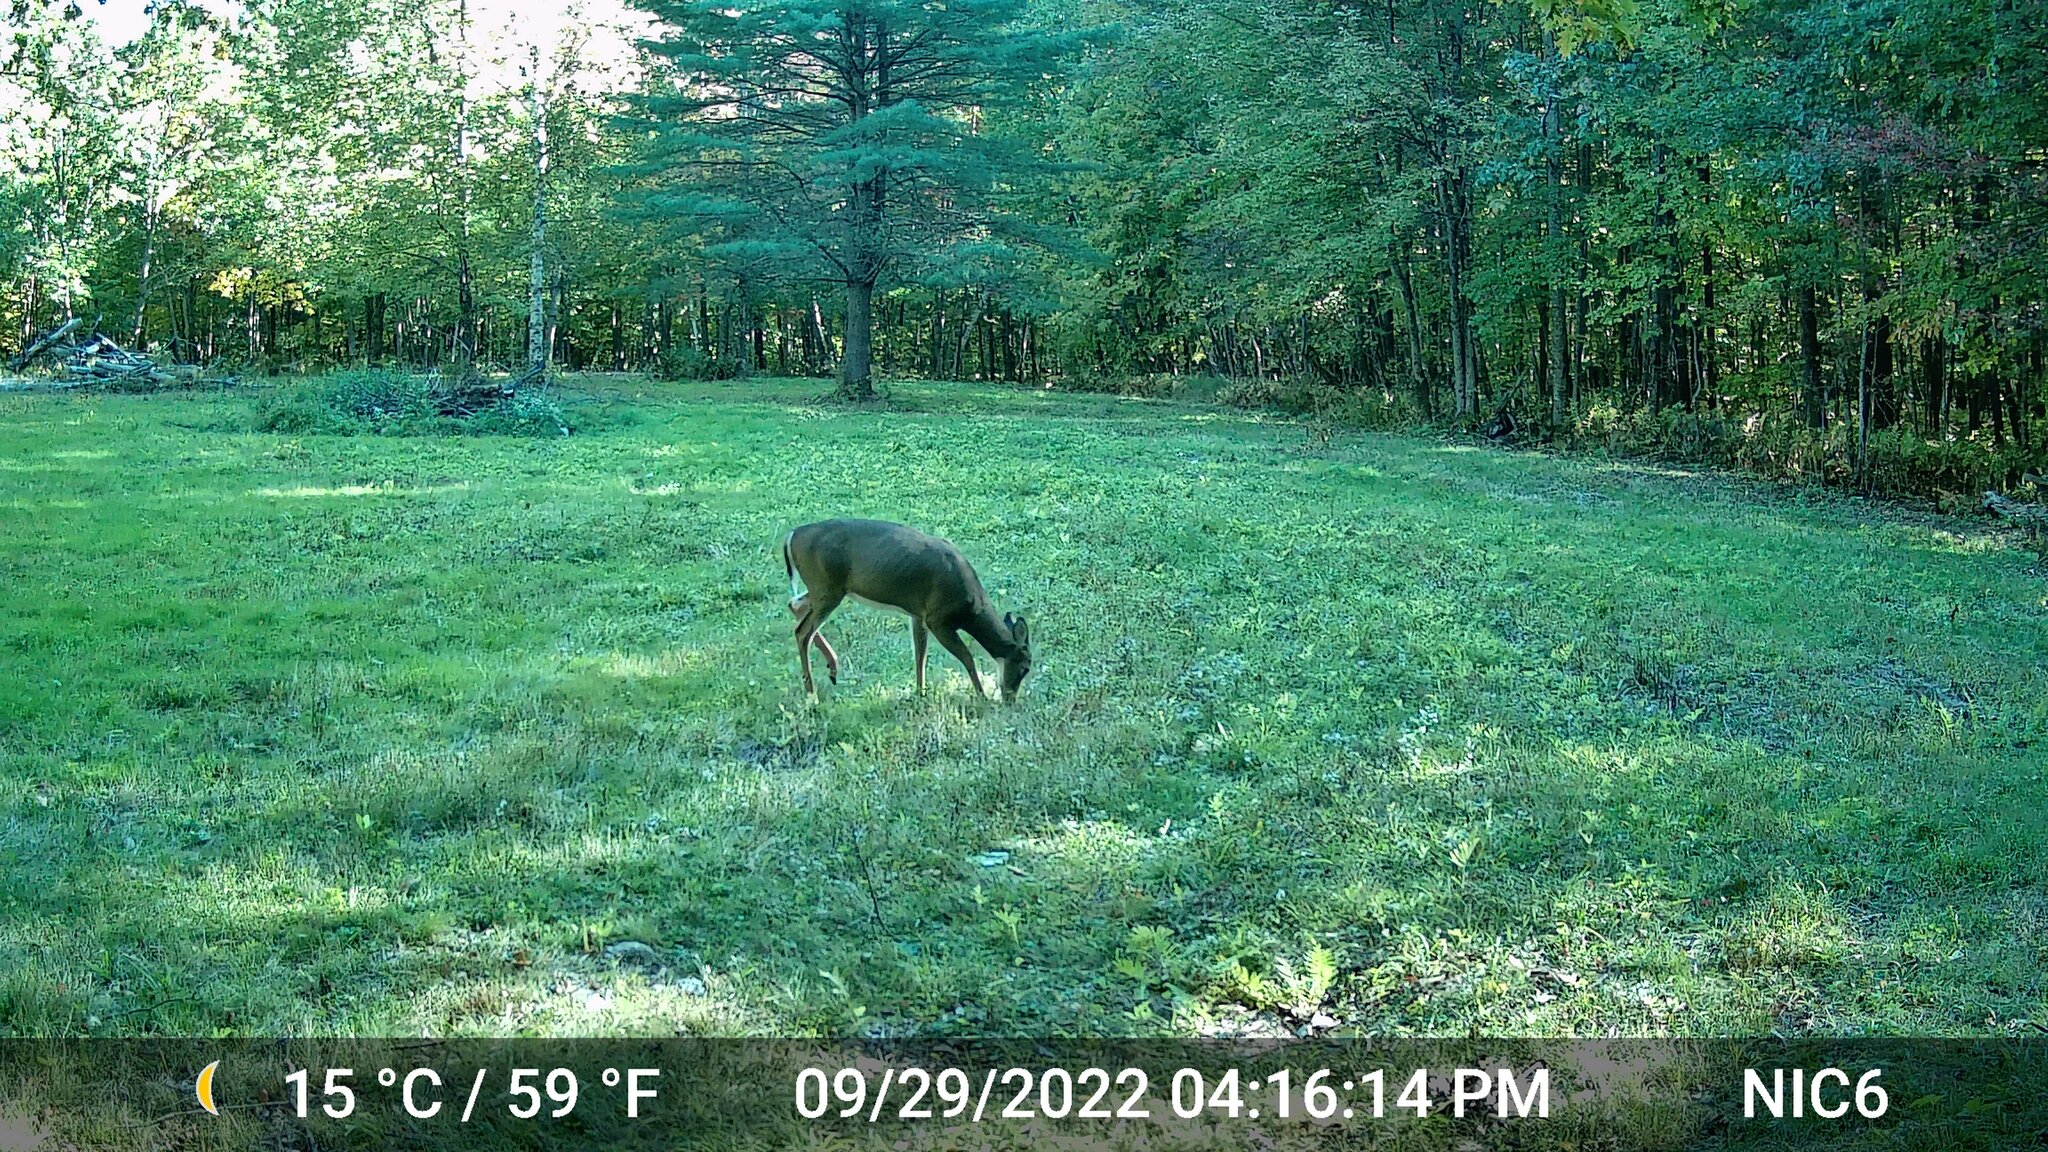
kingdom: Animalia
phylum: Chordata
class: Mammalia
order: Artiodactyla
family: Cervidae
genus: Odocoileus
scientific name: Odocoileus virginianus
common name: White-tailed deer
